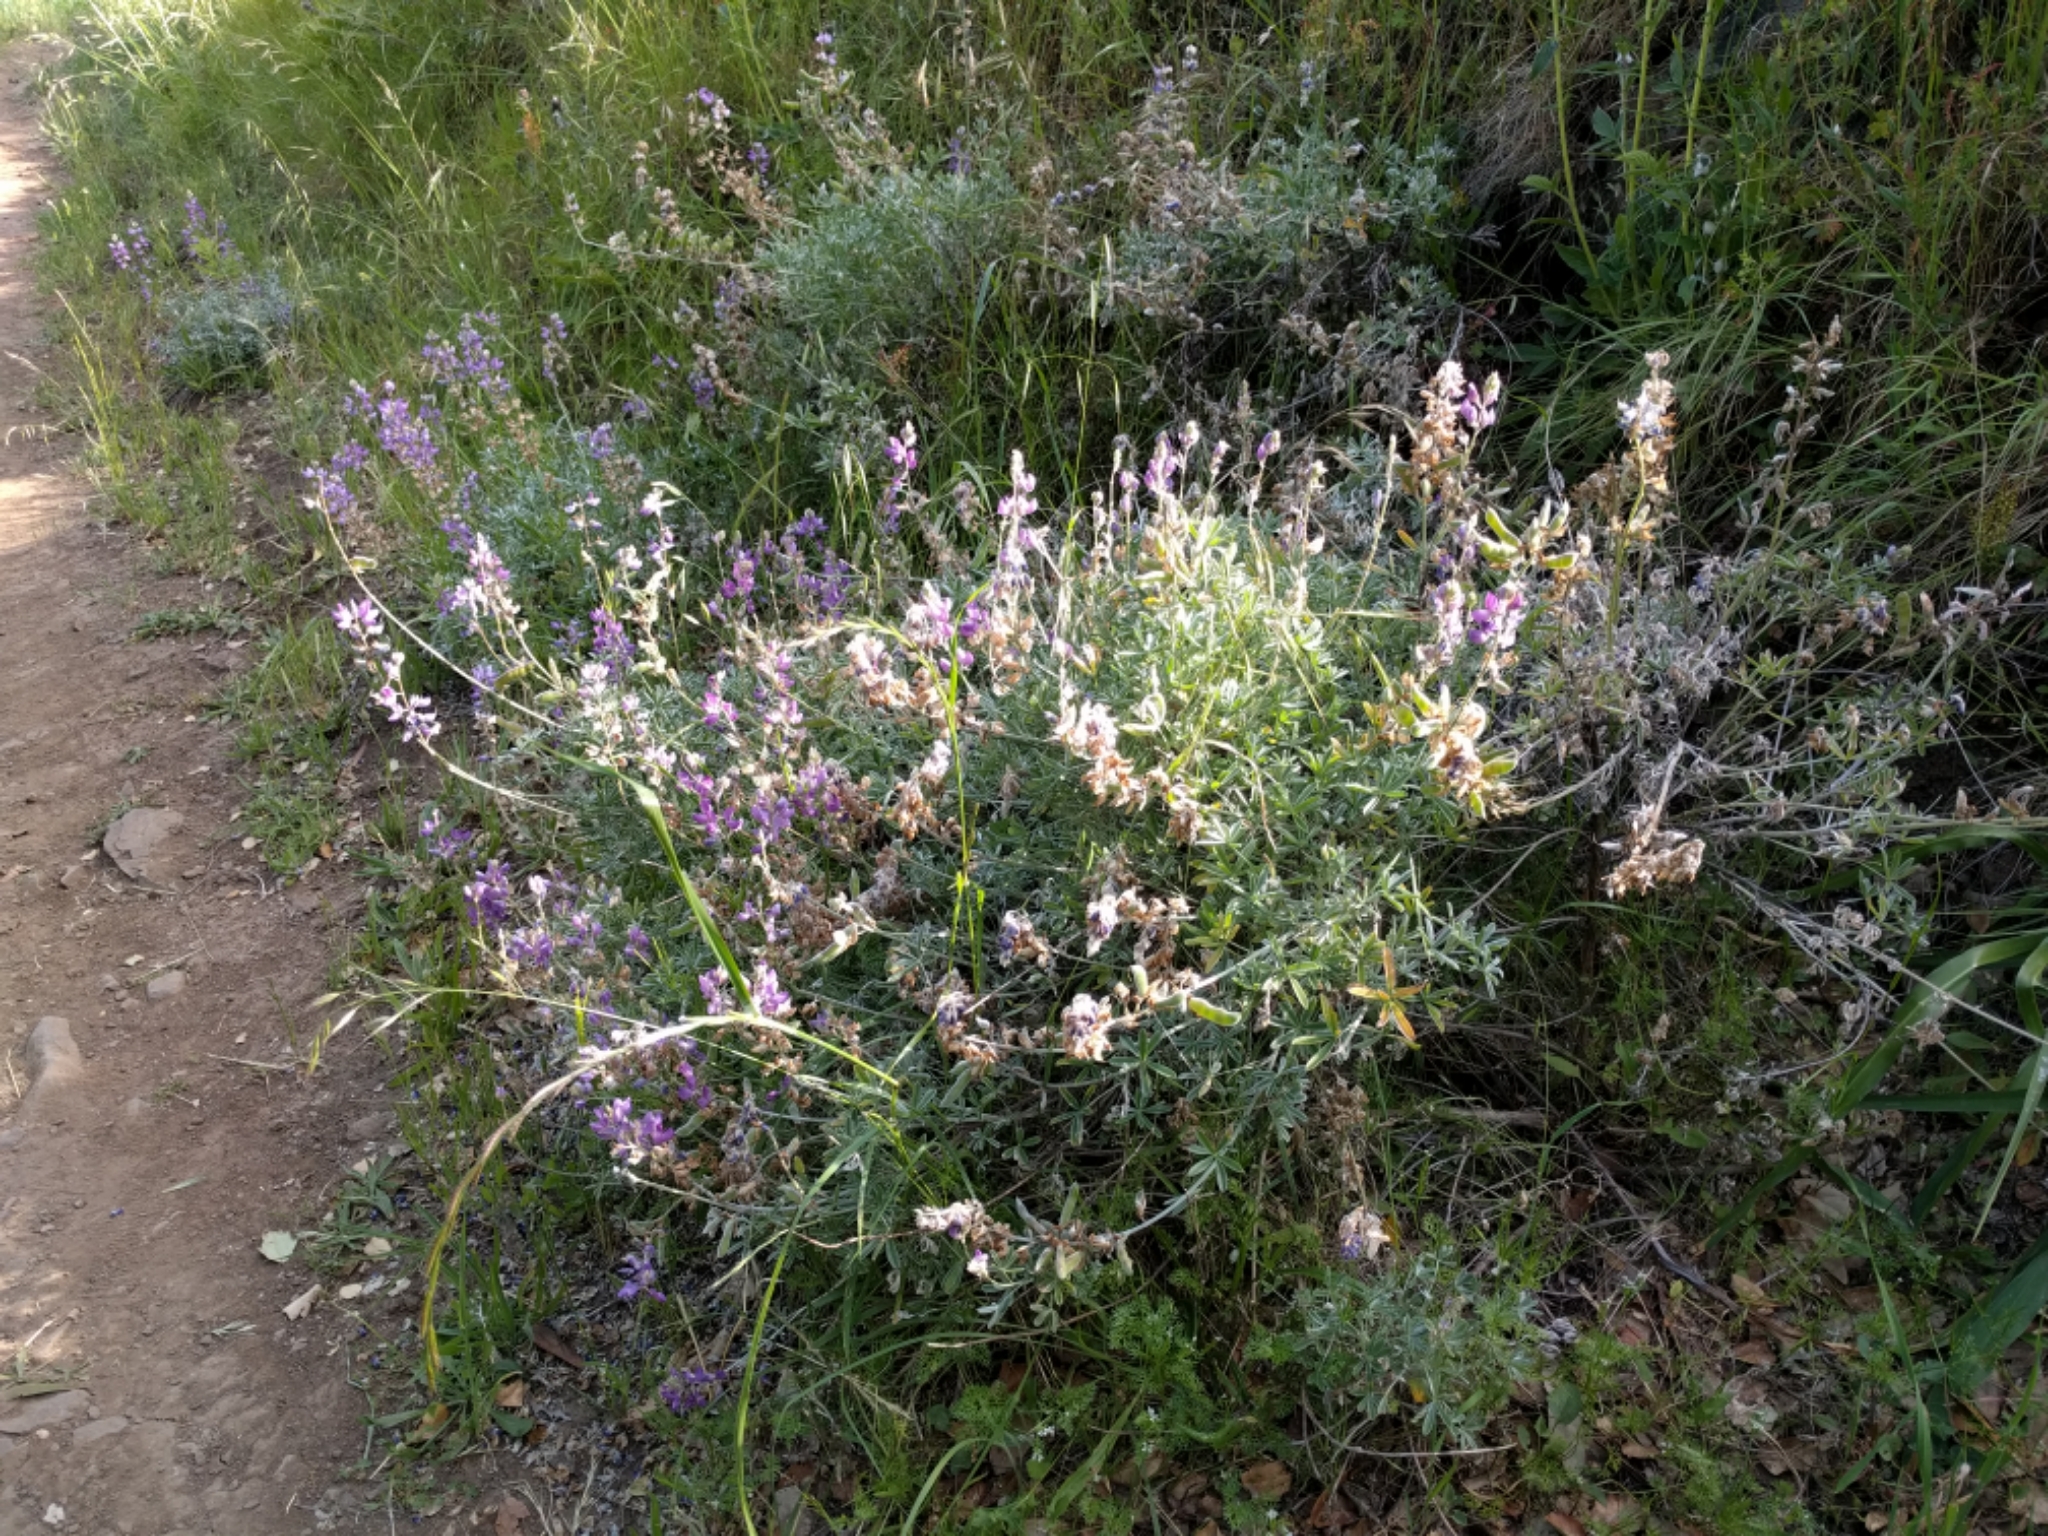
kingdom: Plantae
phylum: Tracheophyta
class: Magnoliopsida
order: Fabales
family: Fabaceae
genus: Lupinus
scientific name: Lupinus albifrons
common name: Foothill lupine
